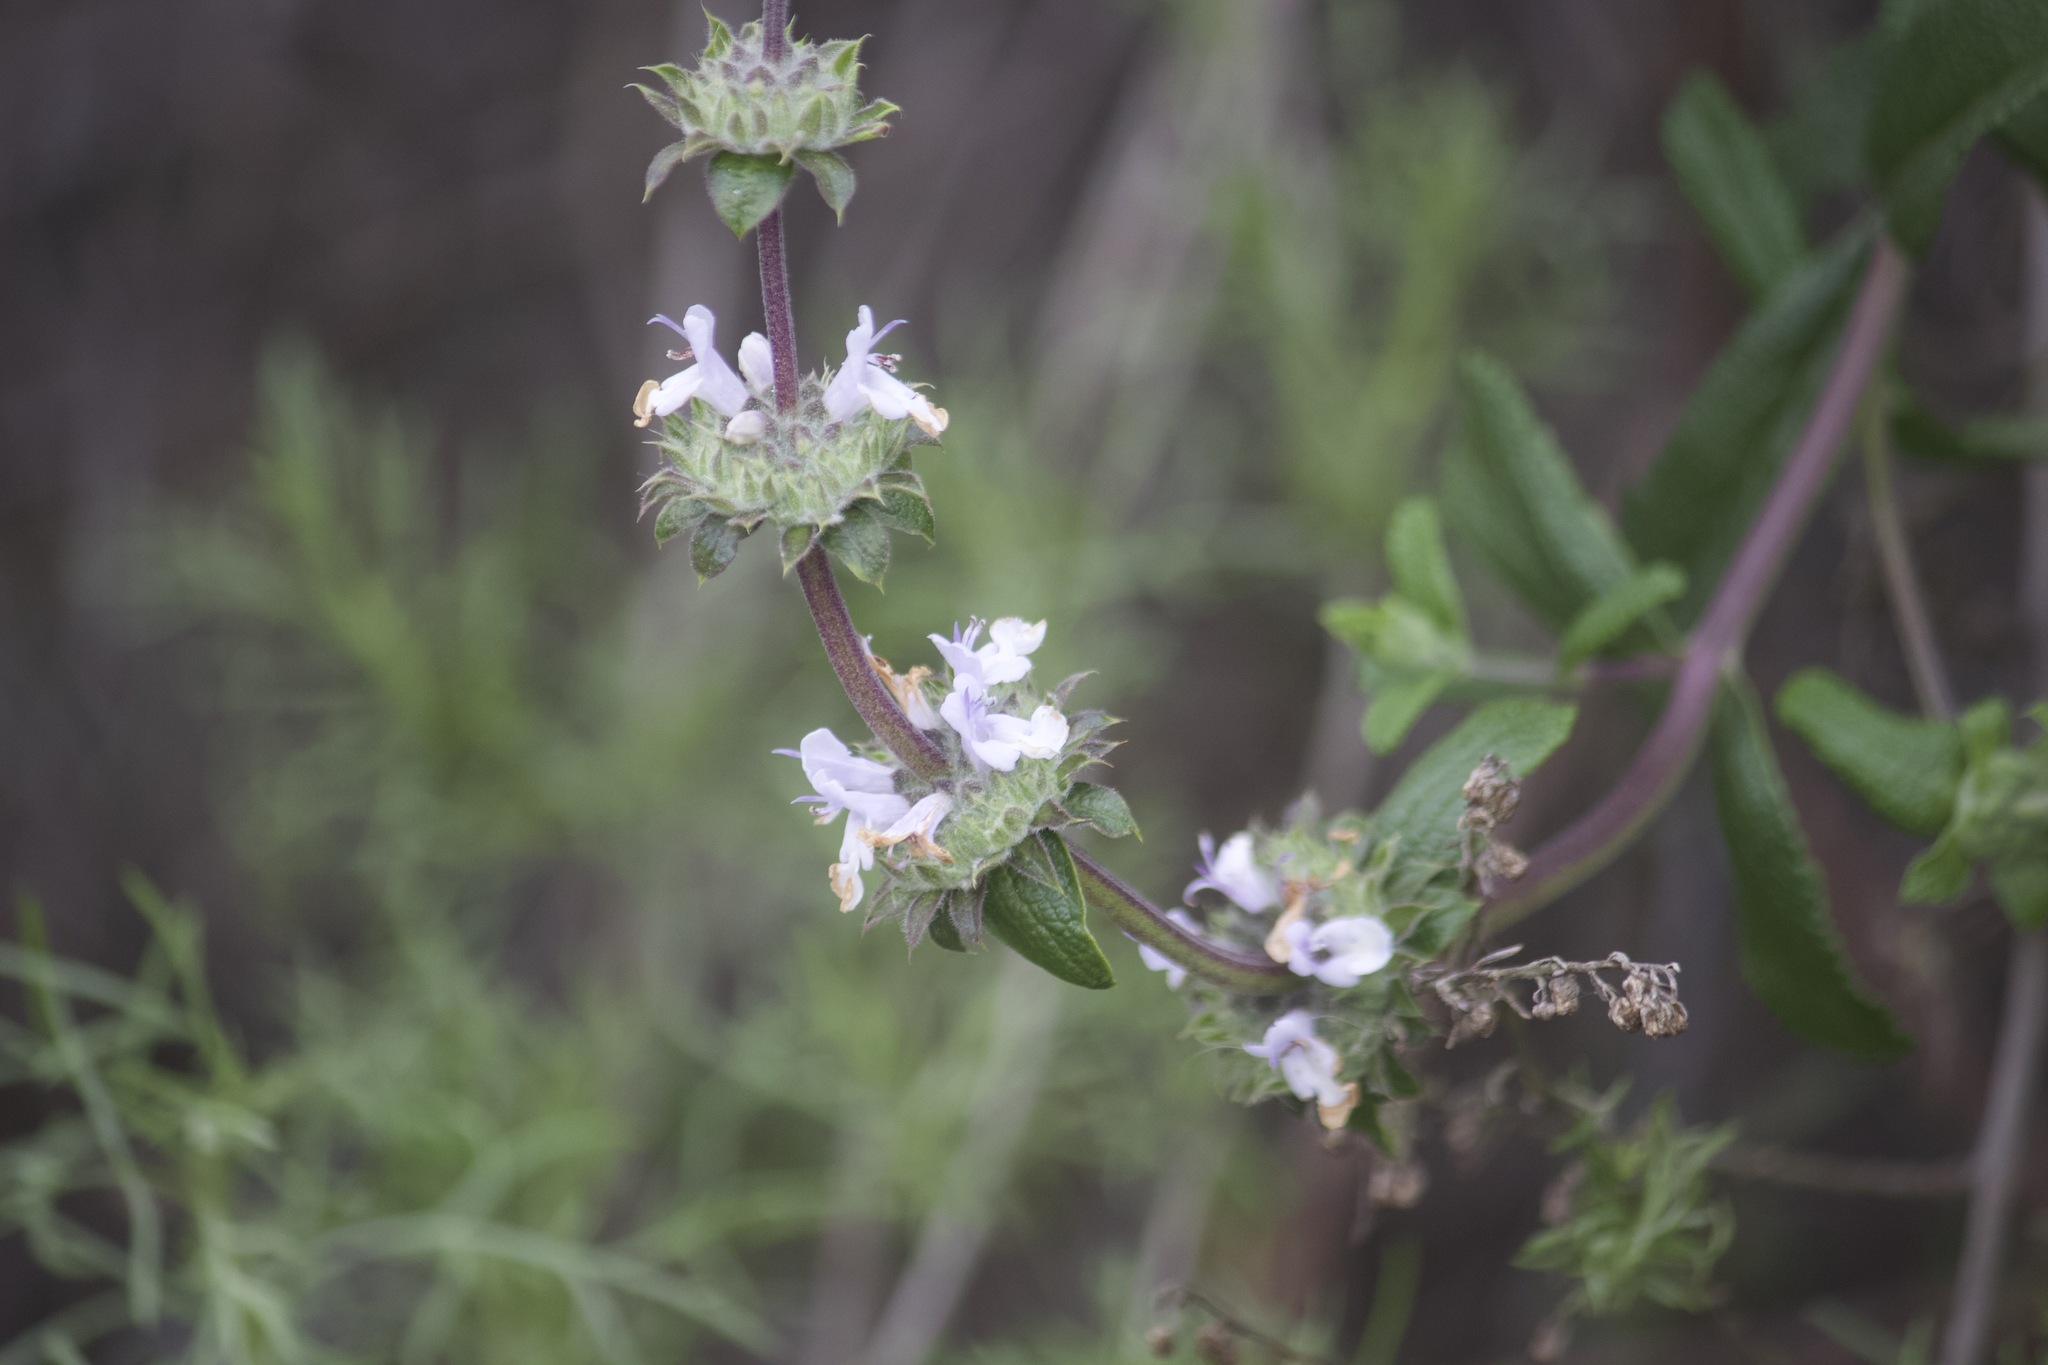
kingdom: Plantae
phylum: Tracheophyta
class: Magnoliopsida
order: Lamiales
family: Lamiaceae
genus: Salvia
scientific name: Salvia mellifera
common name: Black sage
